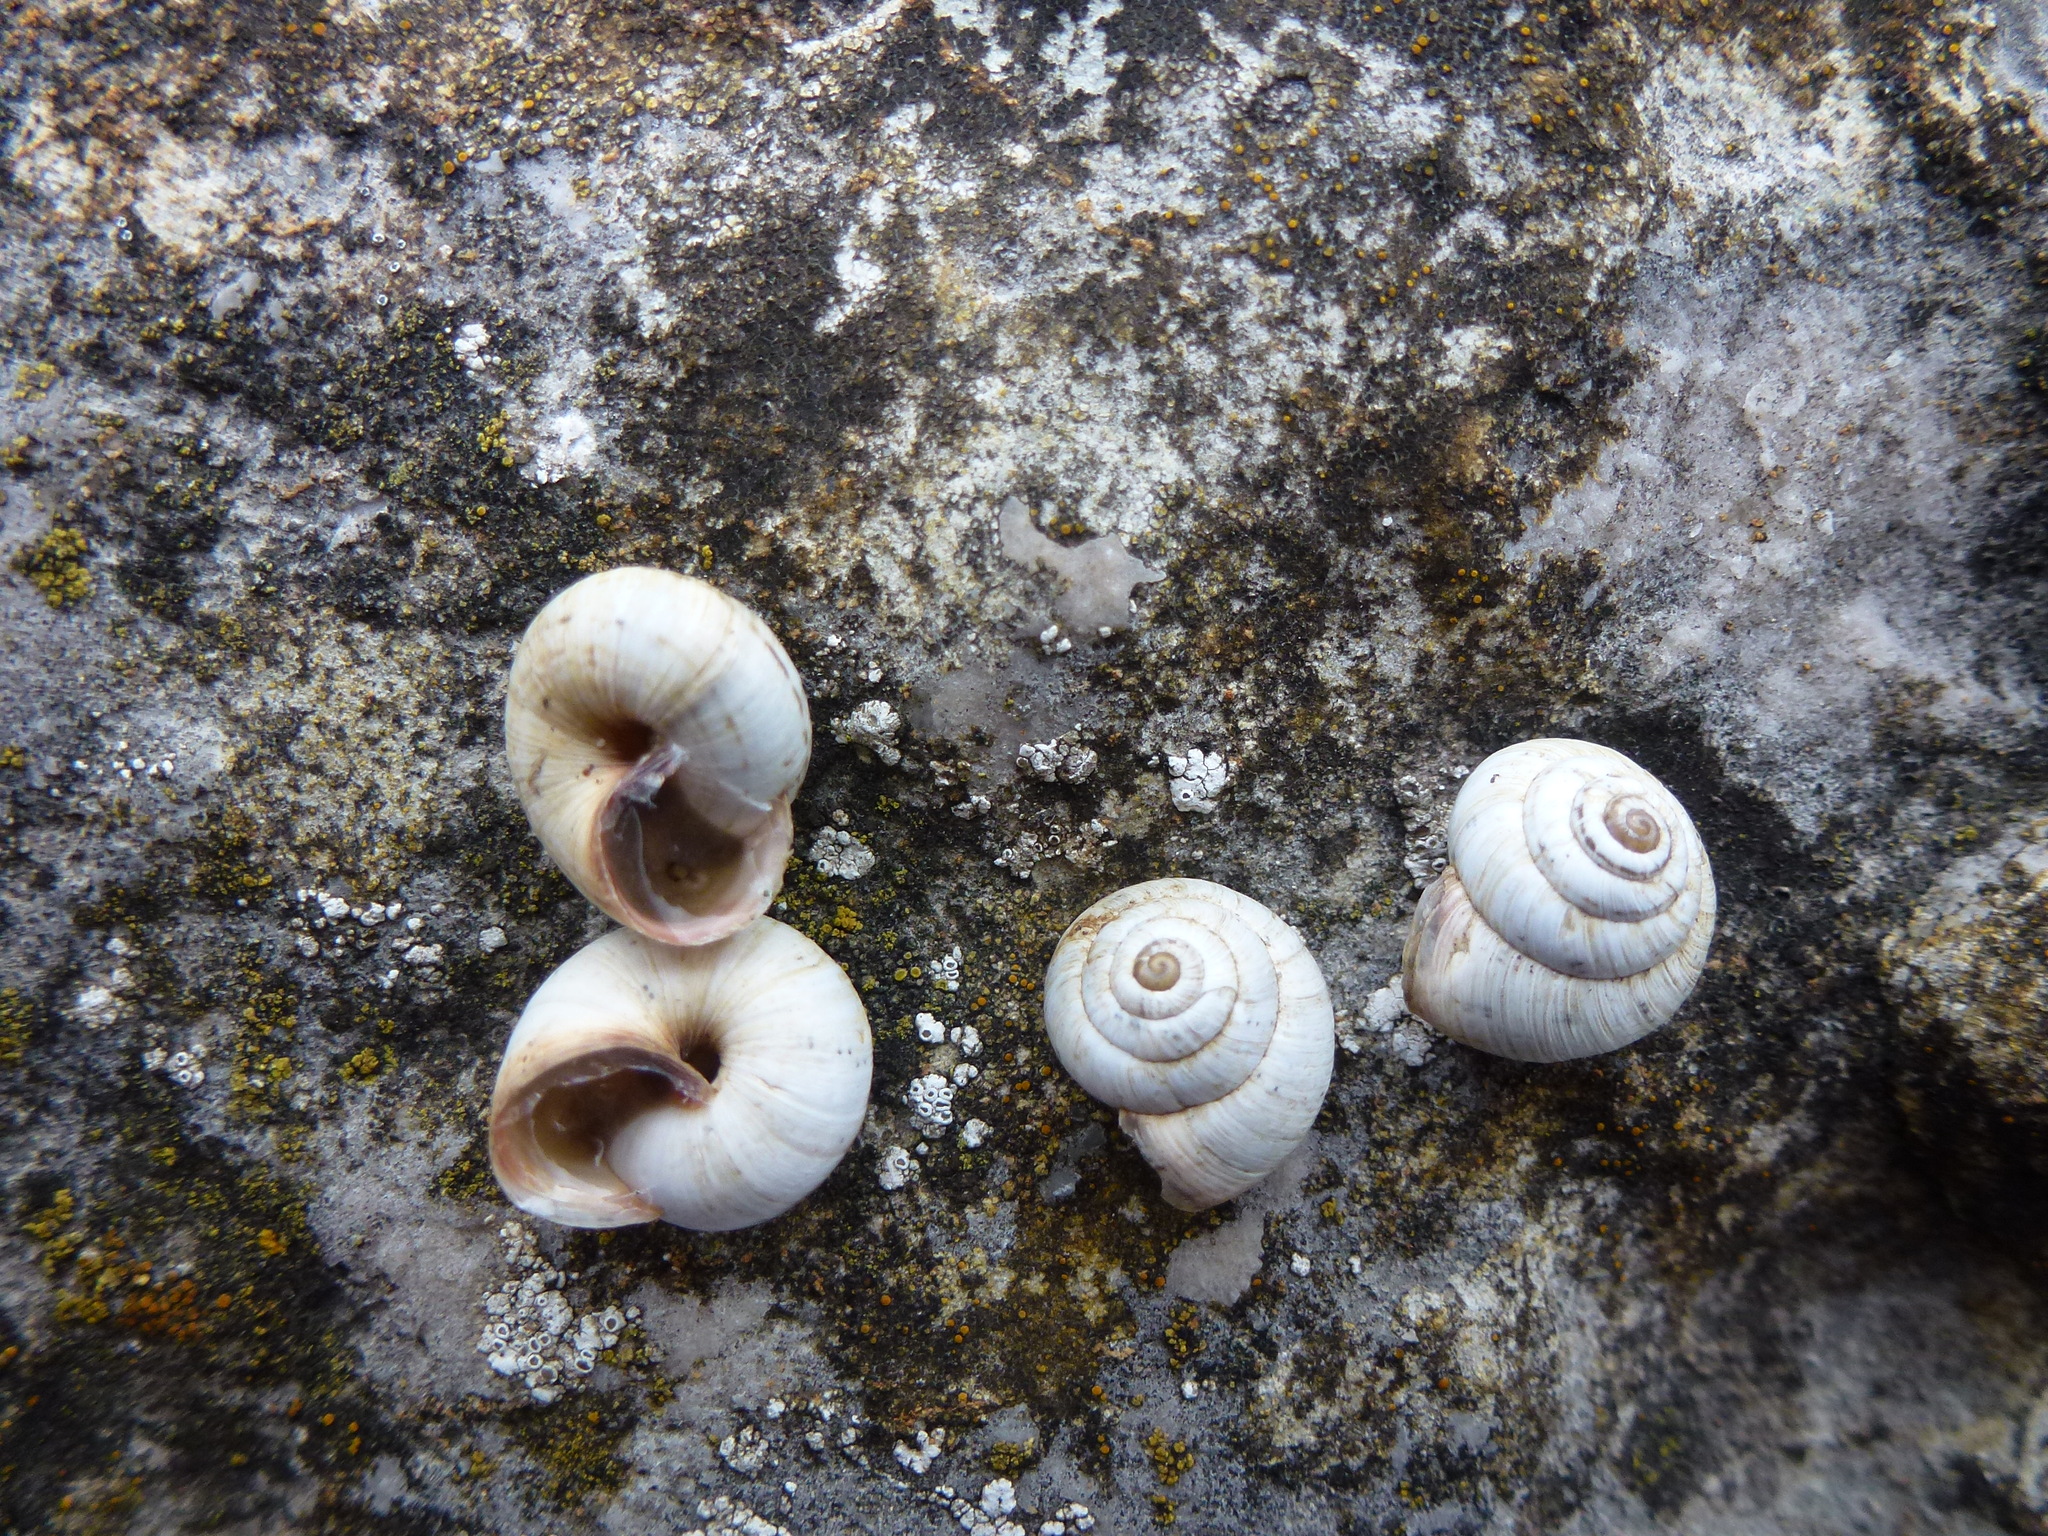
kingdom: Animalia
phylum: Mollusca
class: Gastropoda
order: Stylommatophora
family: Geomitridae
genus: Cernuella
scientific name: Cernuella virgata
